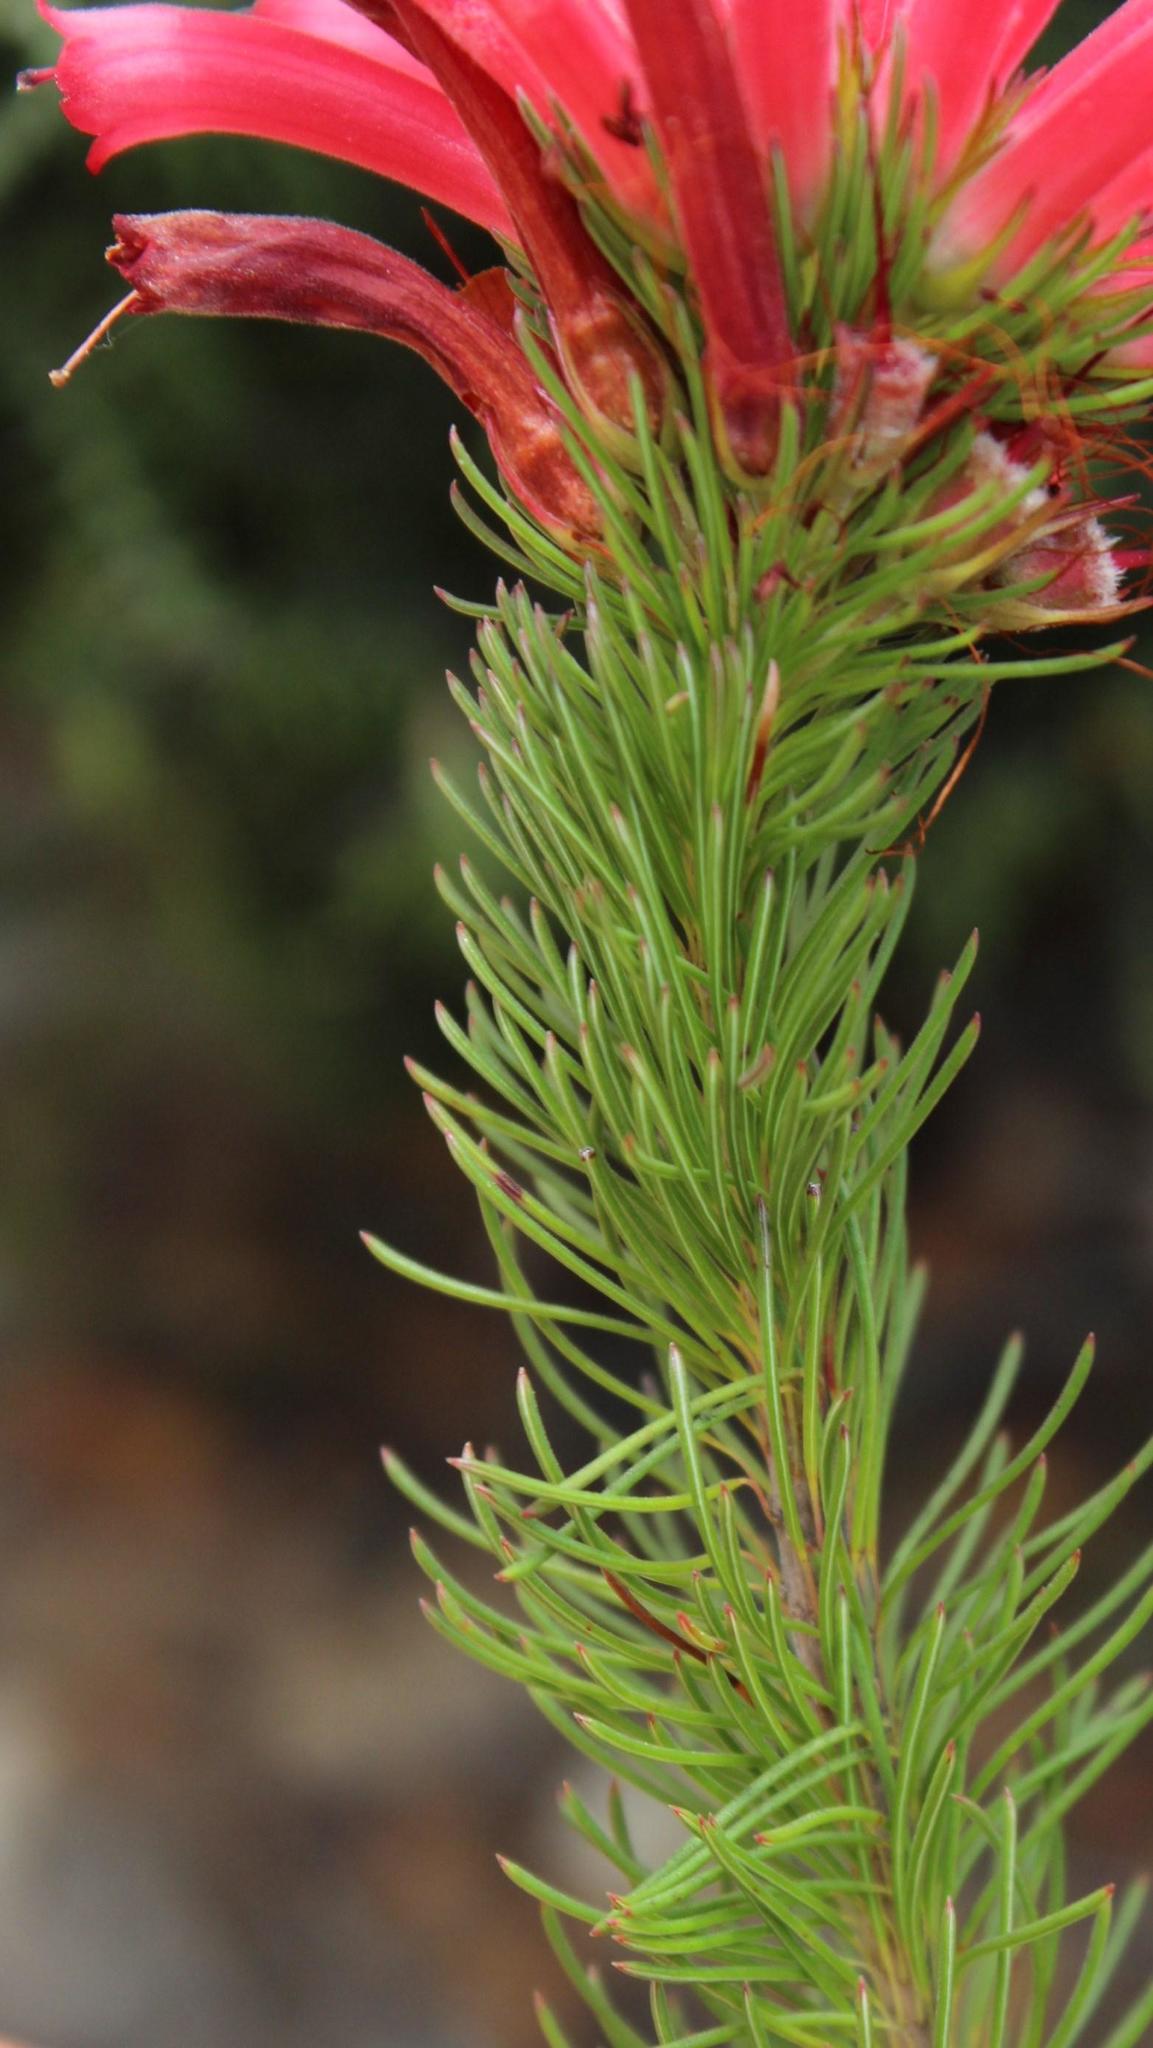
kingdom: Plantae
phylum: Tracheophyta
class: Magnoliopsida
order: Ericales
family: Ericaceae
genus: Erica
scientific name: Erica vestita
